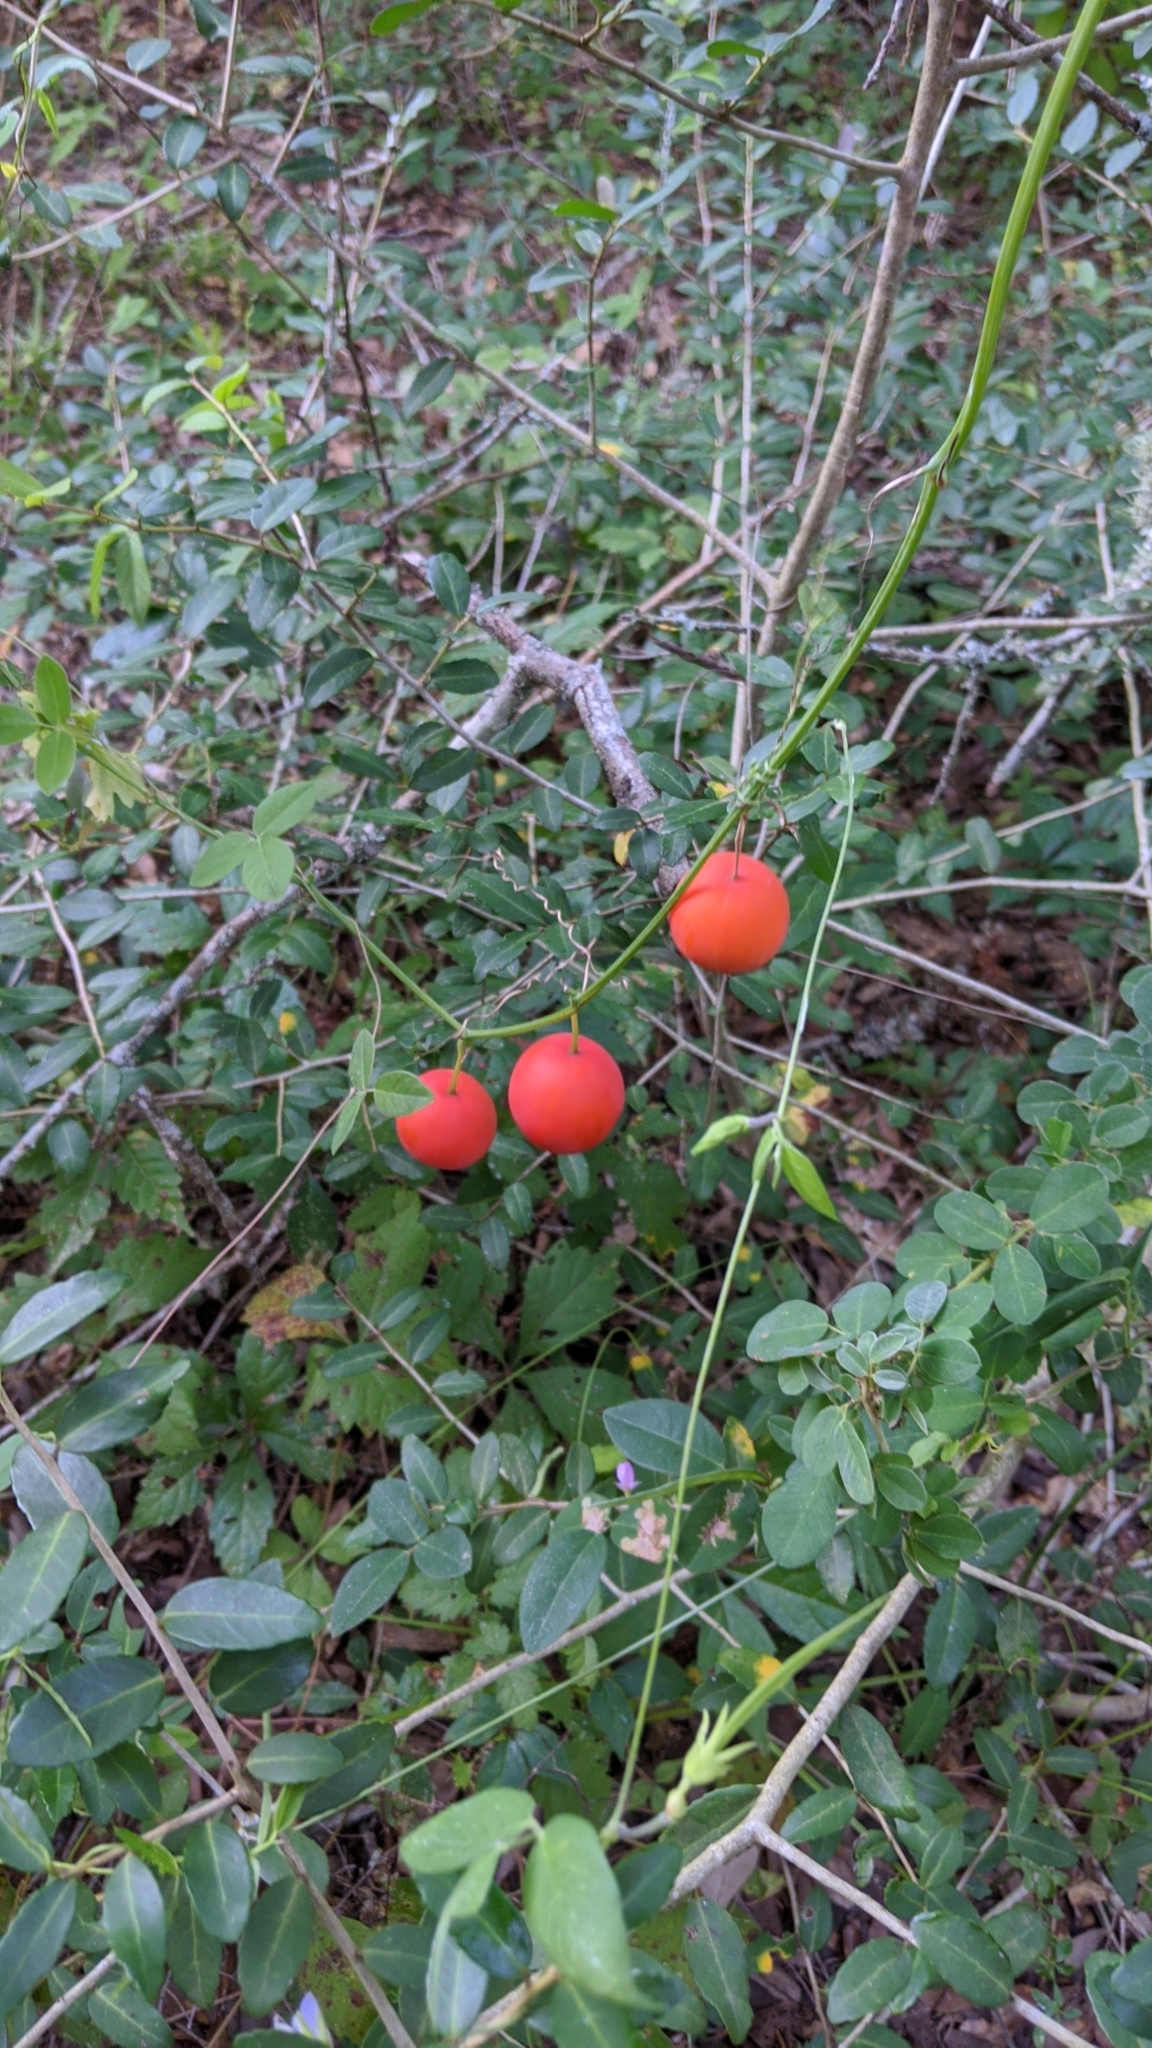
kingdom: Plantae
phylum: Tracheophyta
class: Magnoliopsida
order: Cucurbitales
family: Cucurbitaceae
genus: Ibervillea
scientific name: Ibervillea lindheimeri
